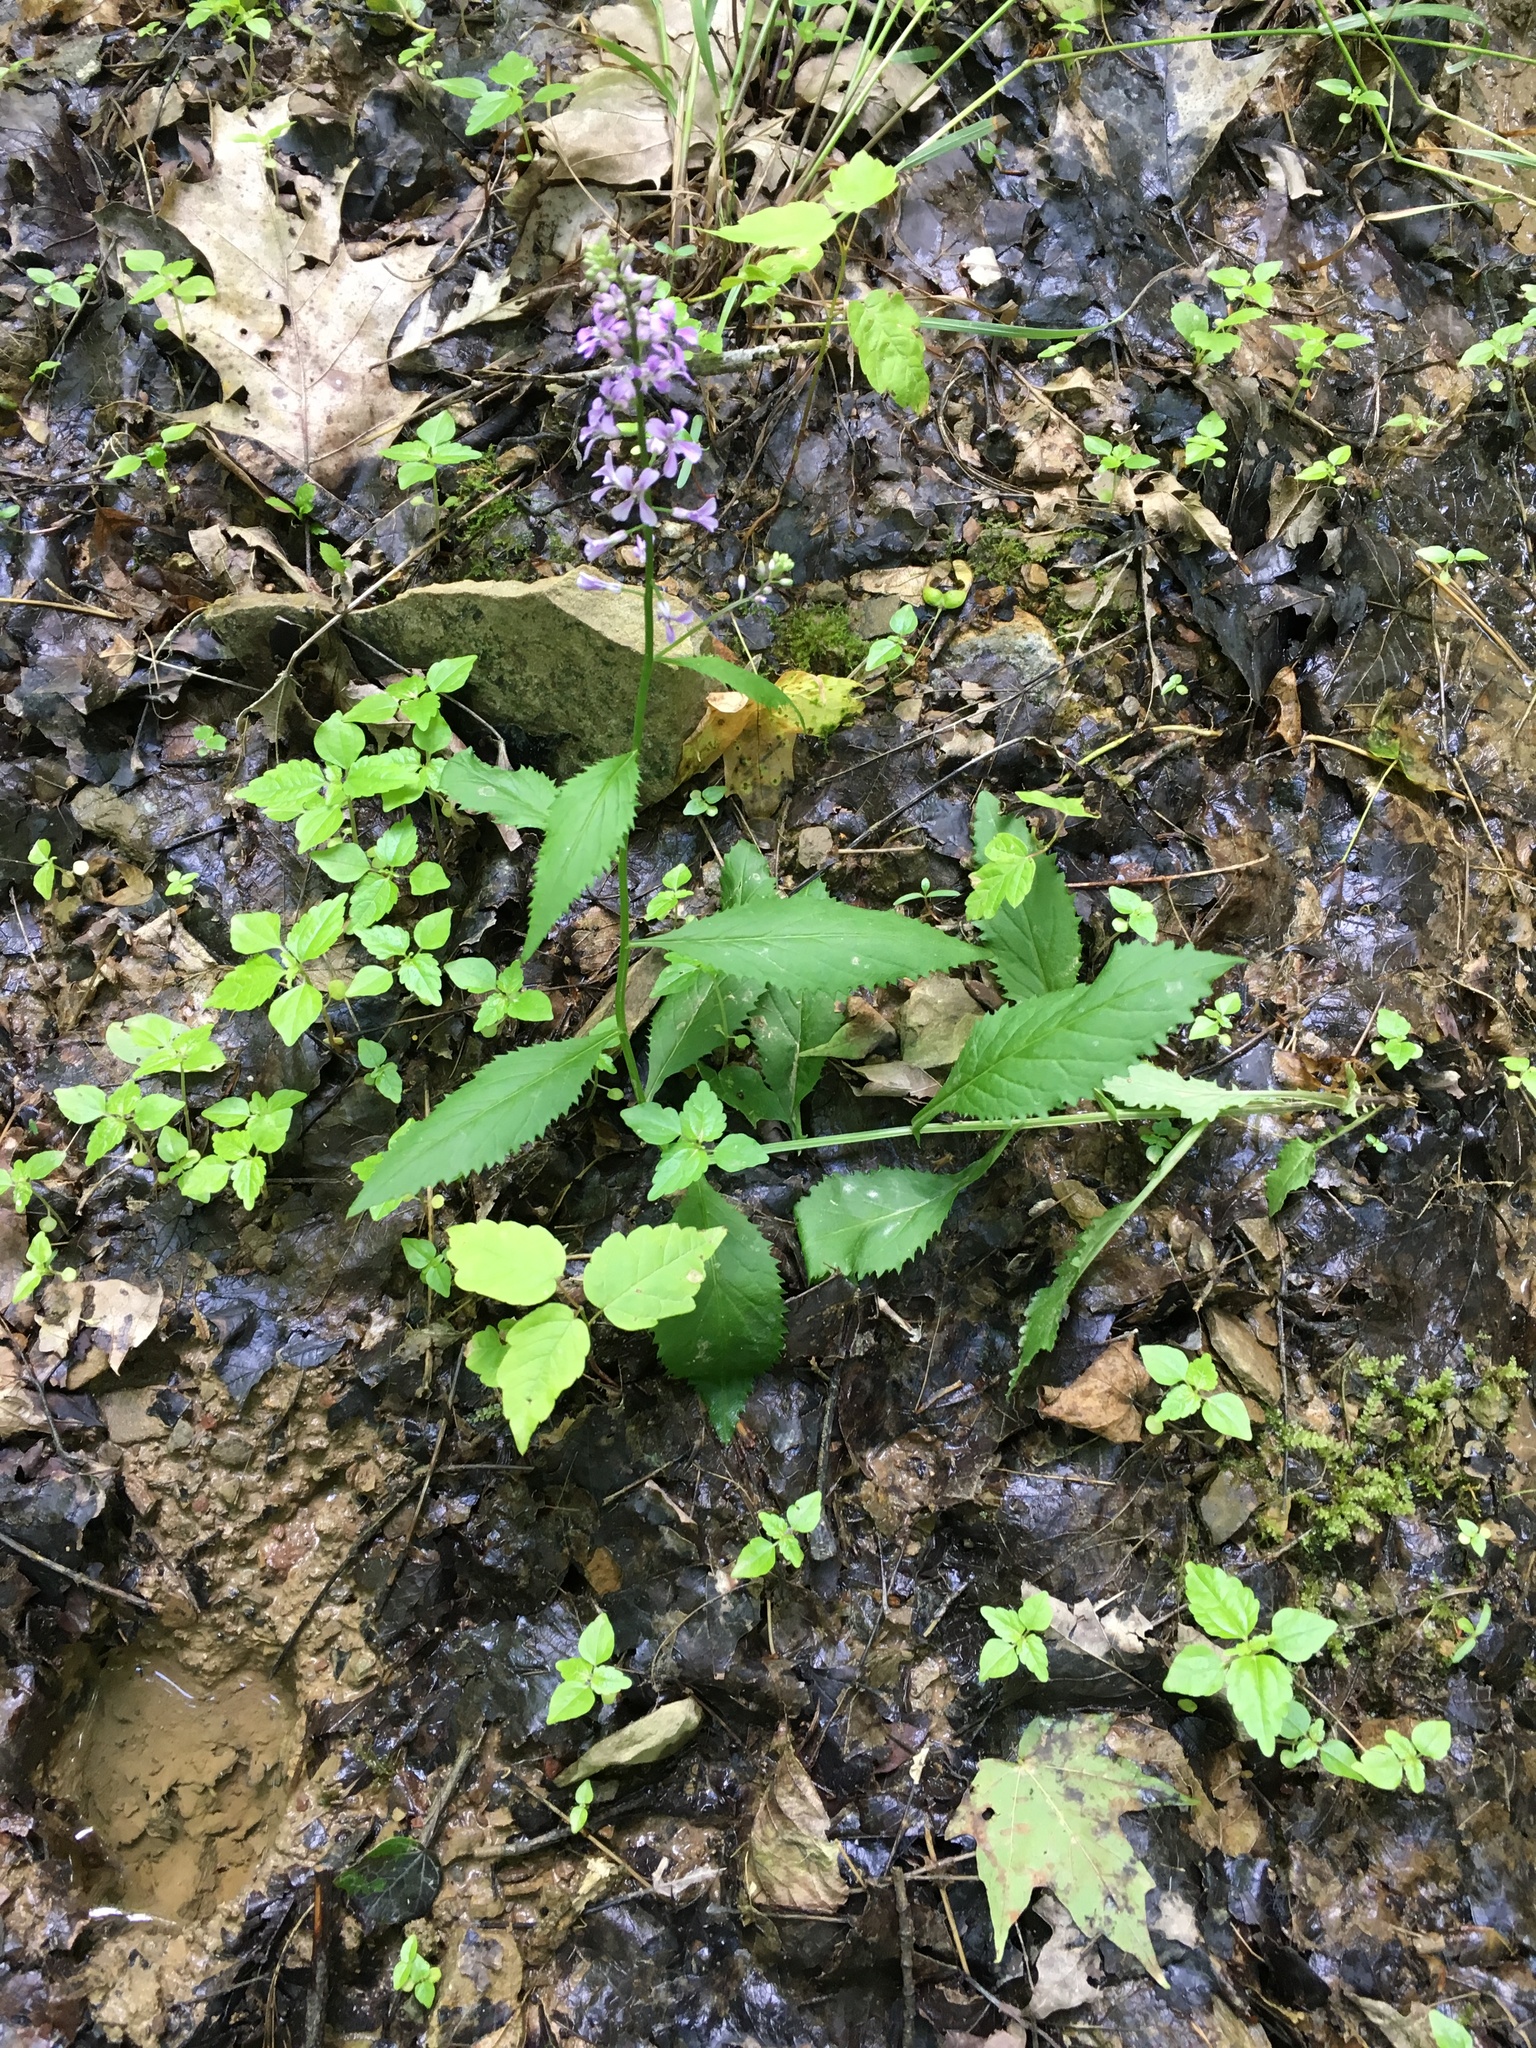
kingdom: Plantae
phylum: Tracheophyta
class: Magnoliopsida
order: Brassicales
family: Brassicaceae
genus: Iodanthus
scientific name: Iodanthus pinnatifidus
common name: Violet rocket
